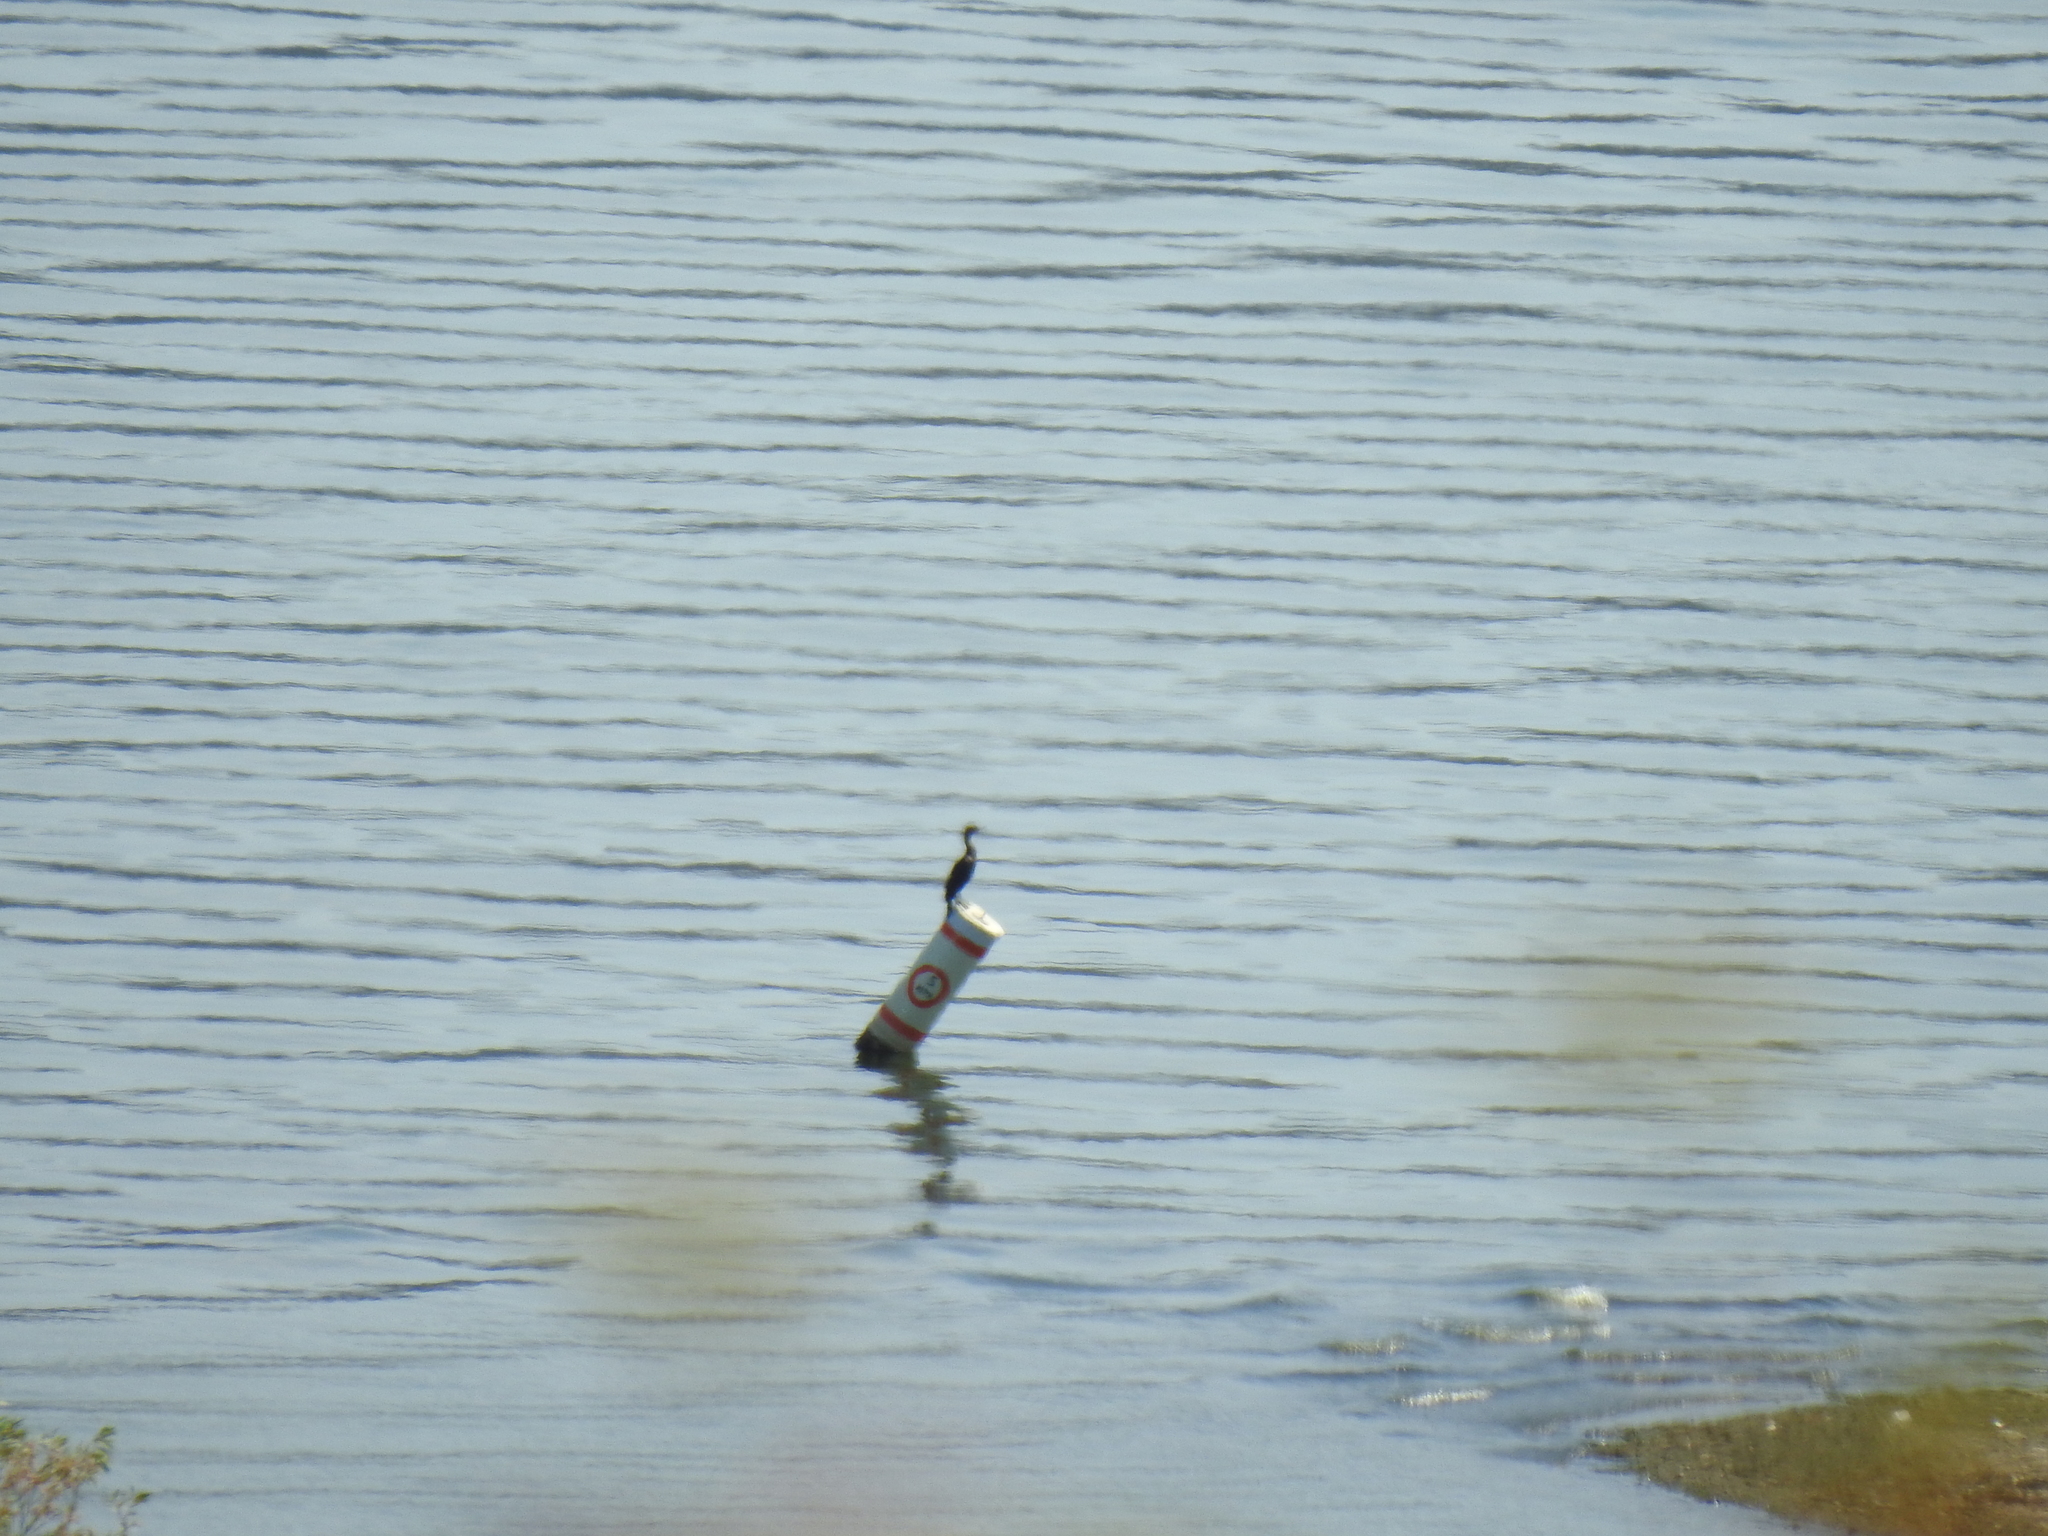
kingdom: Animalia
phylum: Chordata
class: Aves
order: Suliformes
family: Phalacrocoracidae
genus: Phalacrocorax
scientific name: Phalacrocorax auritus
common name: Double-crested cormorant
